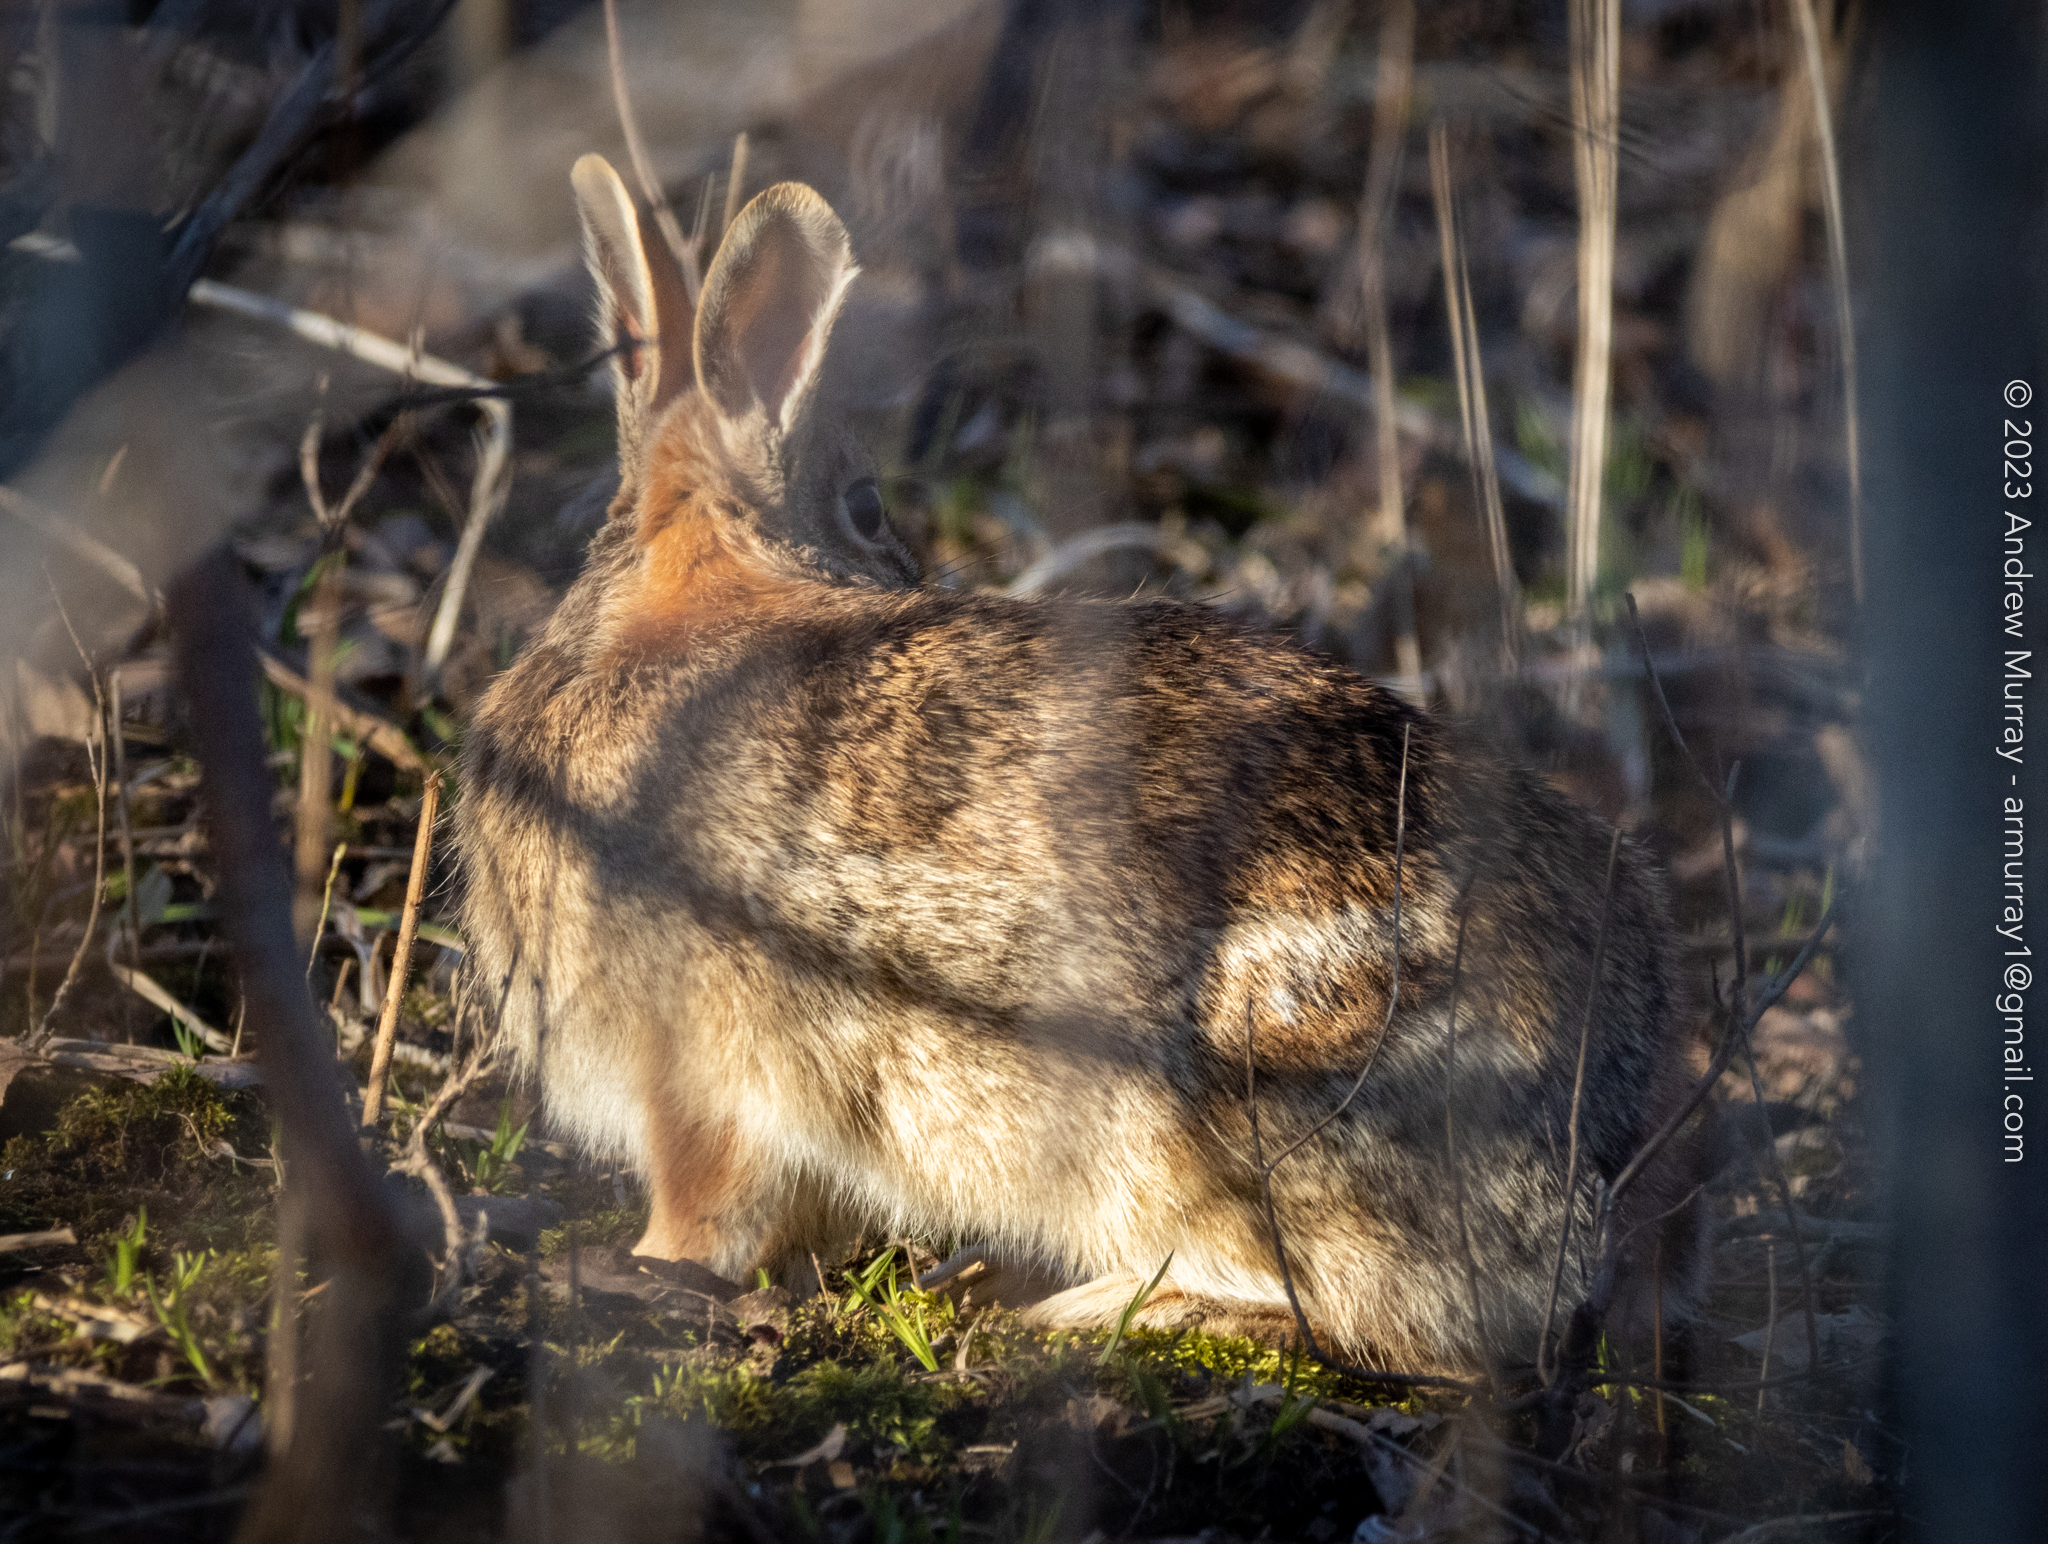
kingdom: Animalia
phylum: Chordata
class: Mammalia
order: Lagomorpha
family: Leporidae
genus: Sylvilagus
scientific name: Sylvilagus floridanus
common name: Eastern cottontail
